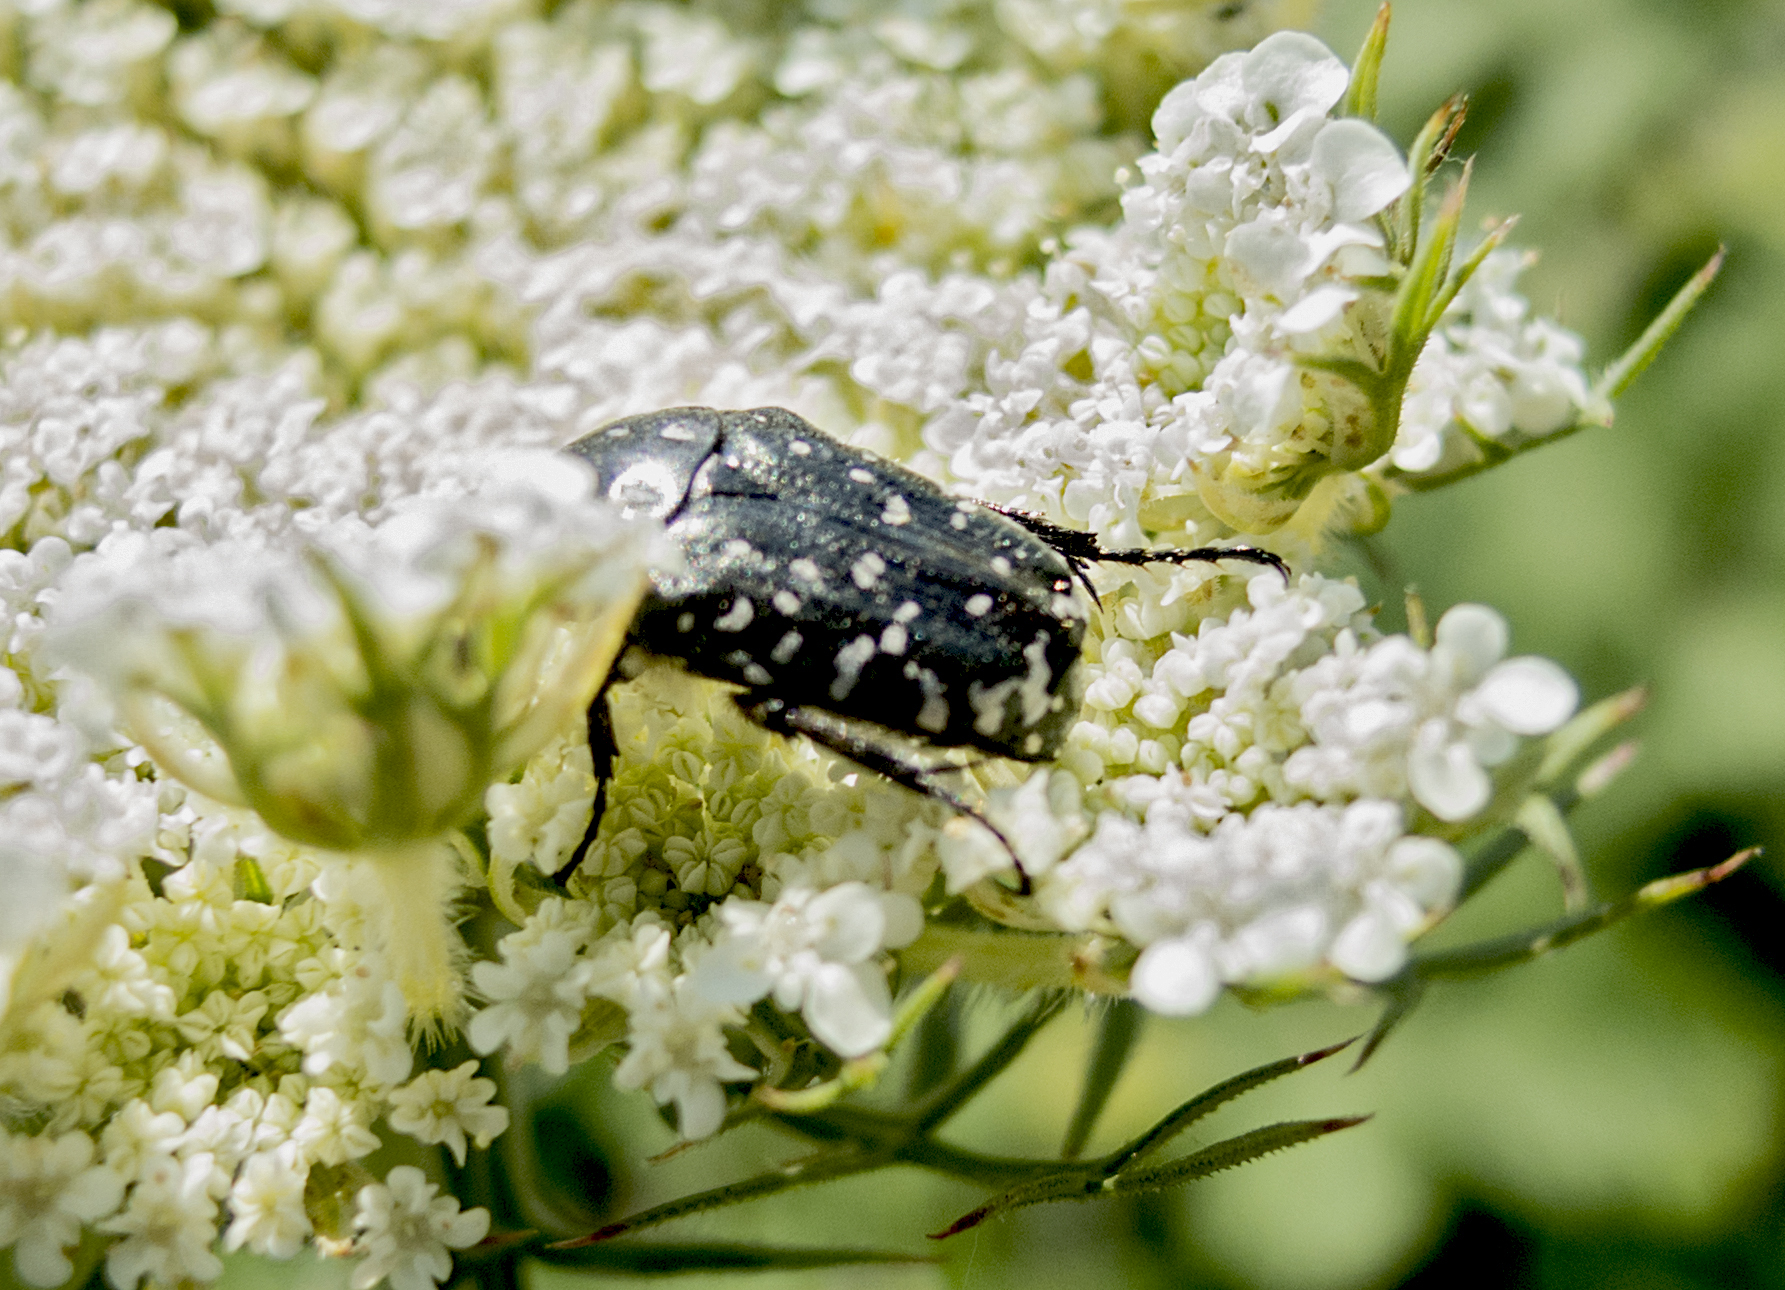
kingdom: Animalia
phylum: Arthropoda
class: Insecta
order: Coleoptera
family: Scarabaeidae
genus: Oxythyrea
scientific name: Oxythyrea funesta
